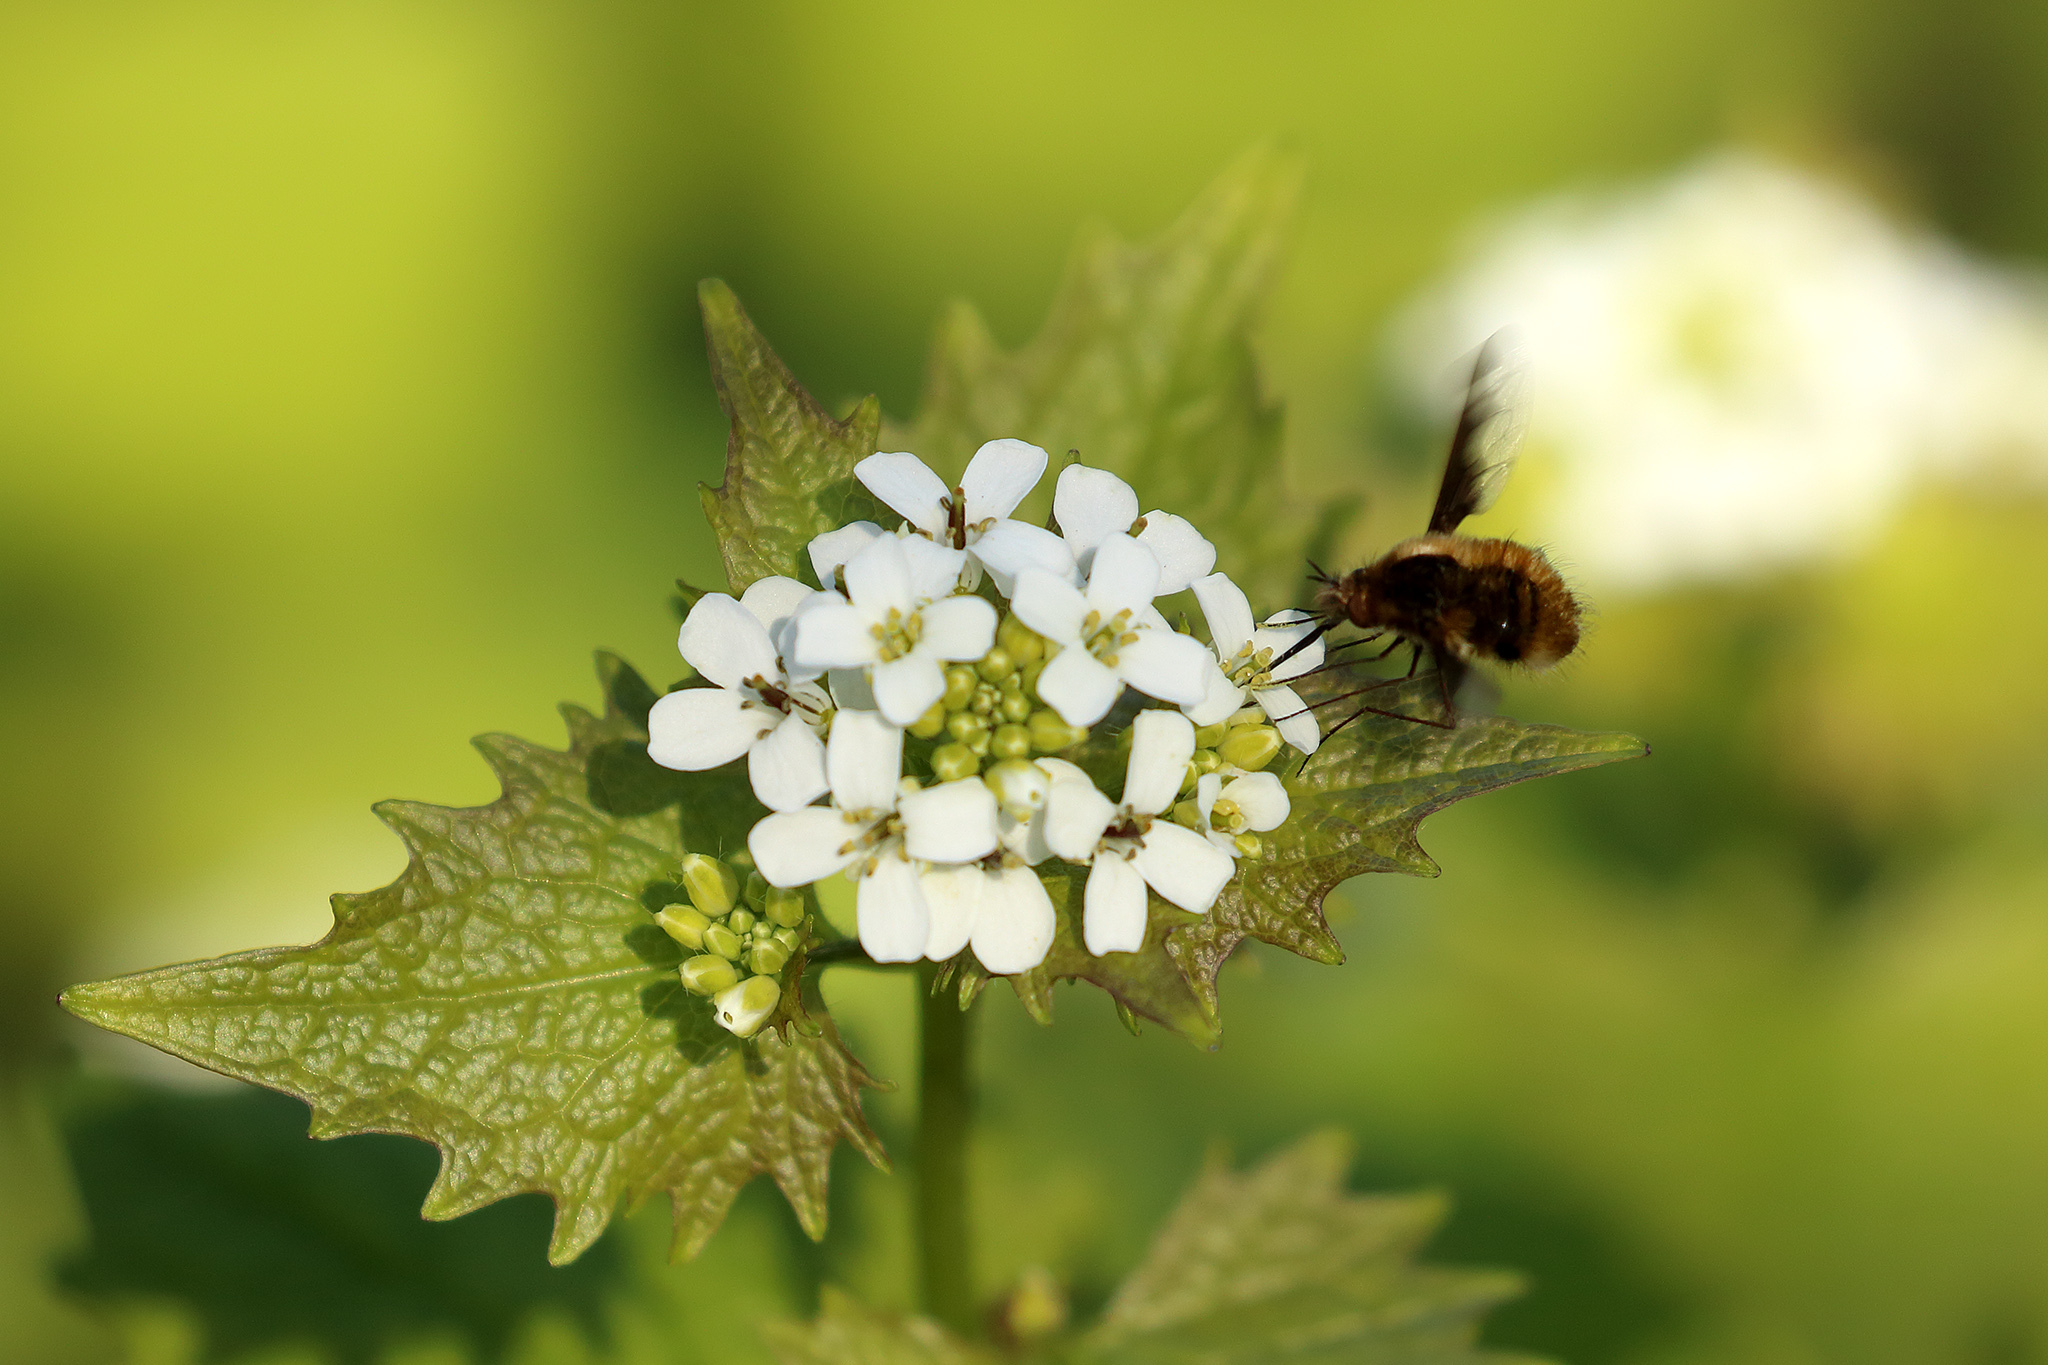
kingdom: Animalia
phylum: Arthropoda
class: Insecta
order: Diptera
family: Bombyliidae
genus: Bombylius
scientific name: Bombylius major
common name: Bee fly
